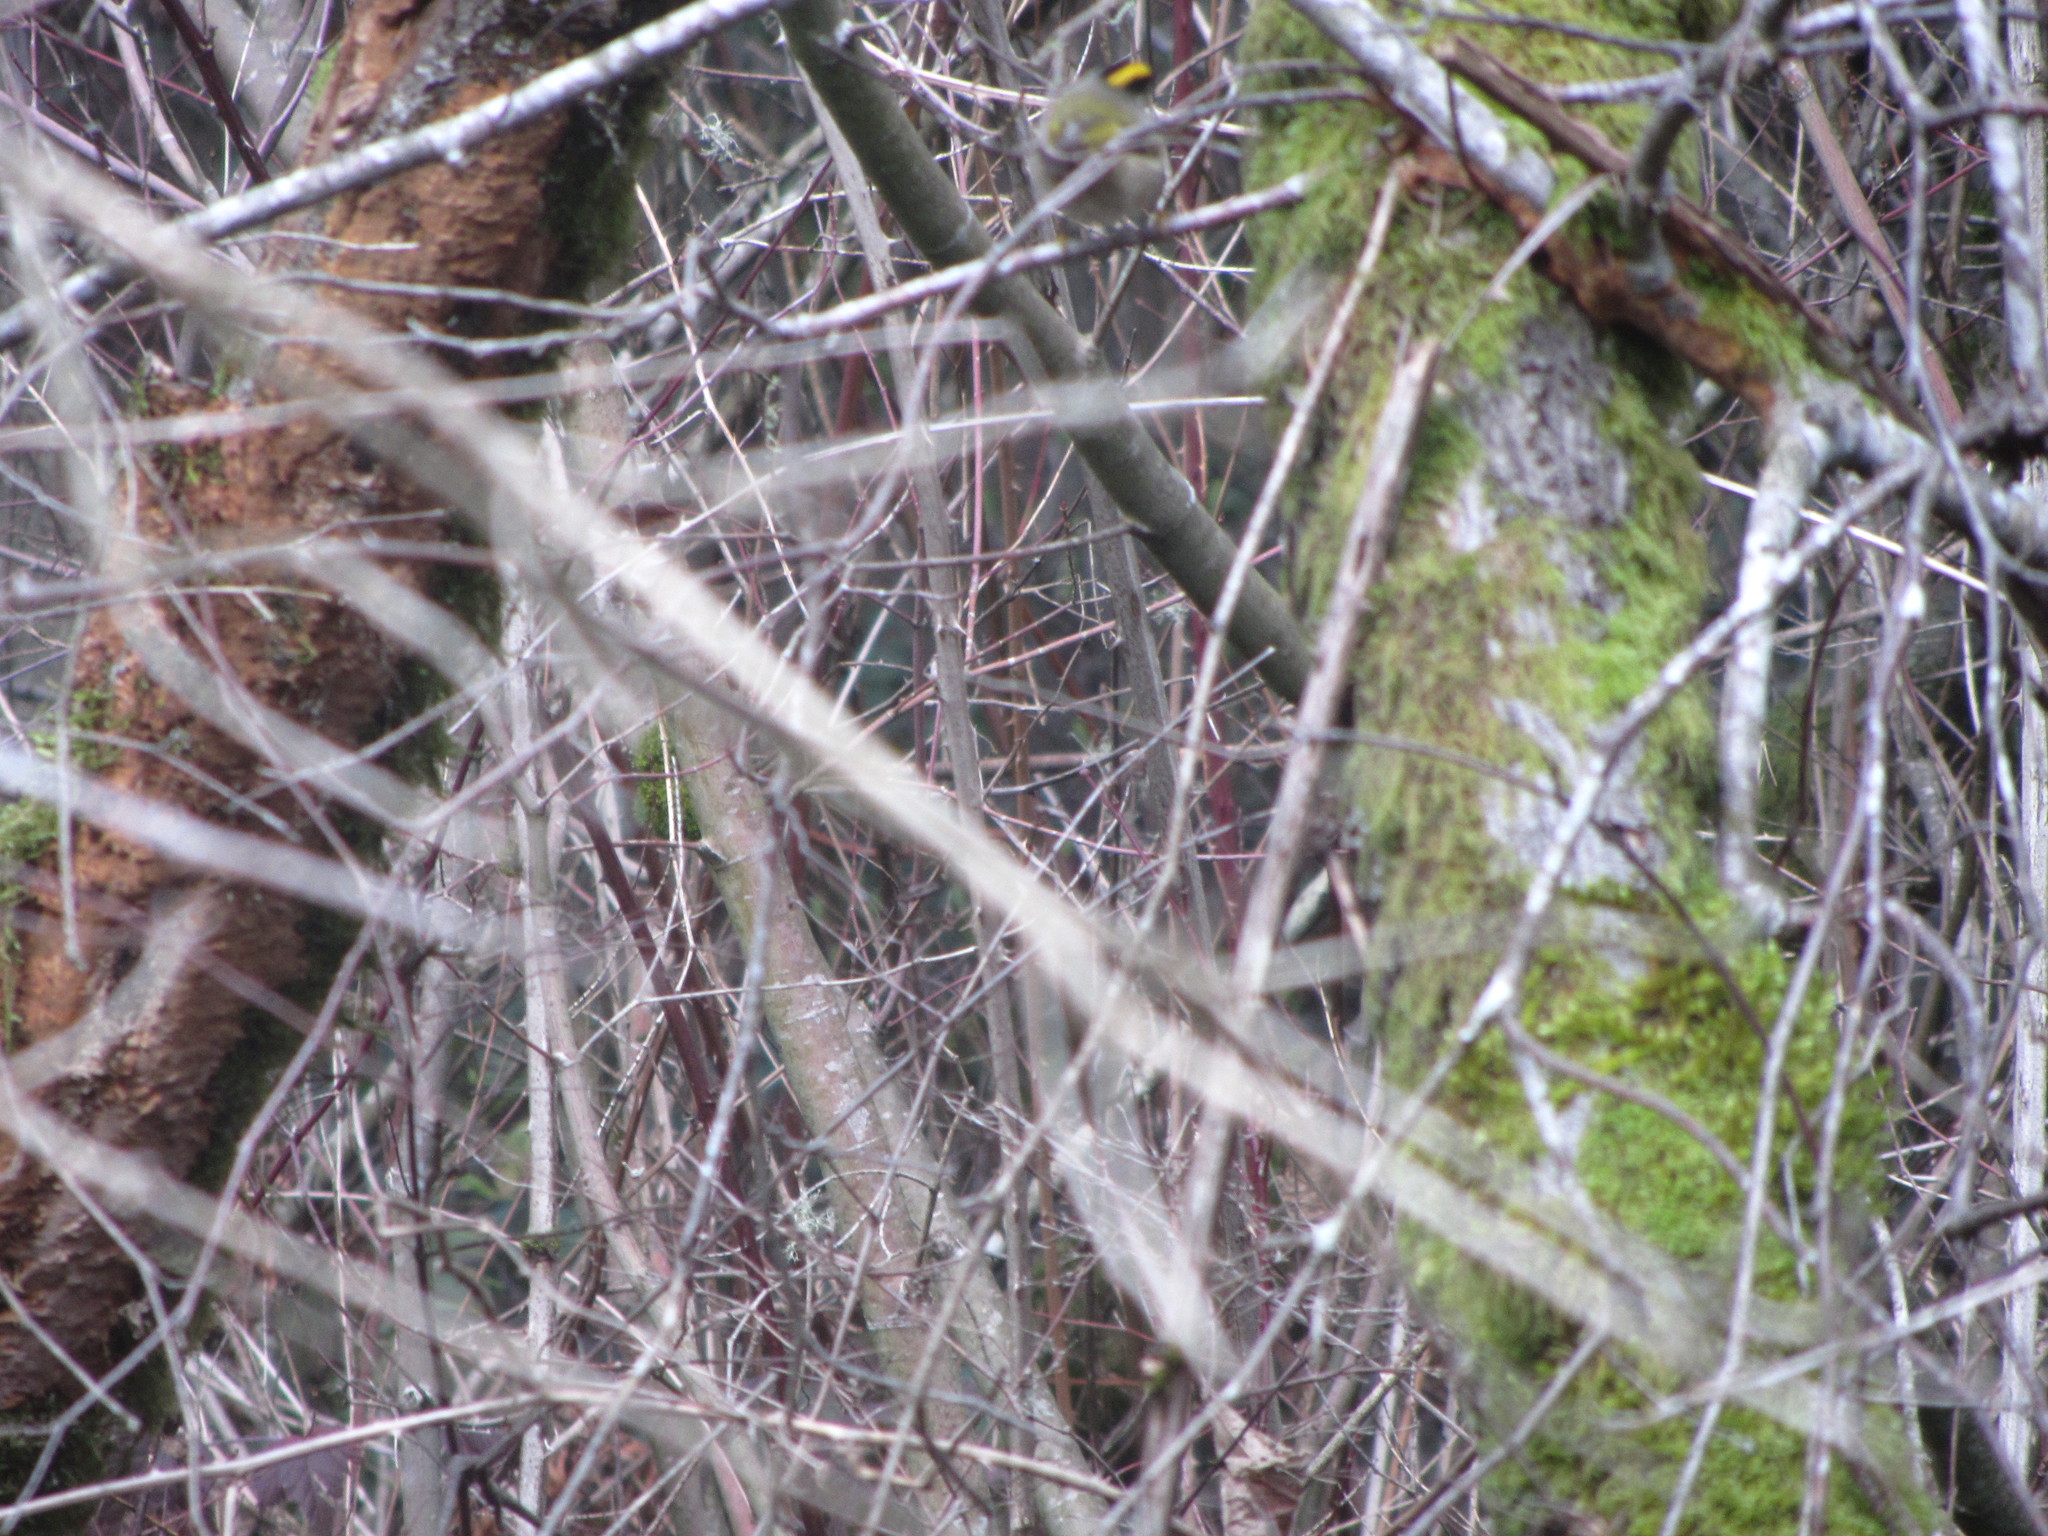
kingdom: Animalia
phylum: Chordata
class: Aves
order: Passeriformes
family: Regulidae
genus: Regulus
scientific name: Regulus satrapa
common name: Golden-crowned kinglet
